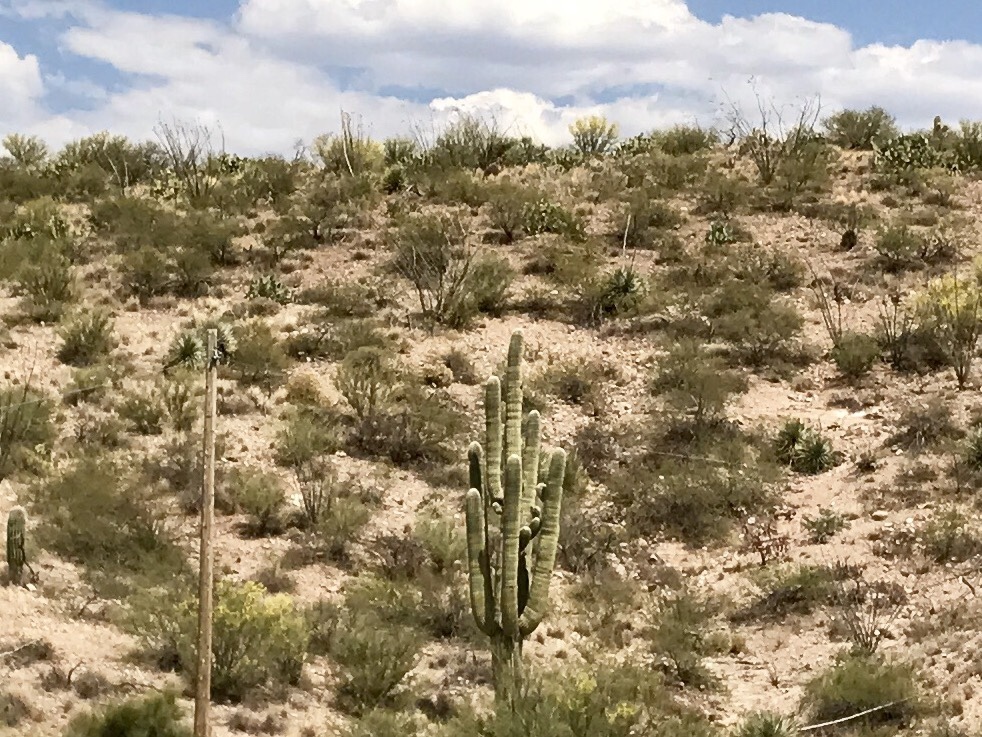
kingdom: Plantae
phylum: Tracheophyta
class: Magnoliopsida
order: Caryophyllales
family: Cactaceae
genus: Carnegiea
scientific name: Carnegiea gigantea
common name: Saguaro
